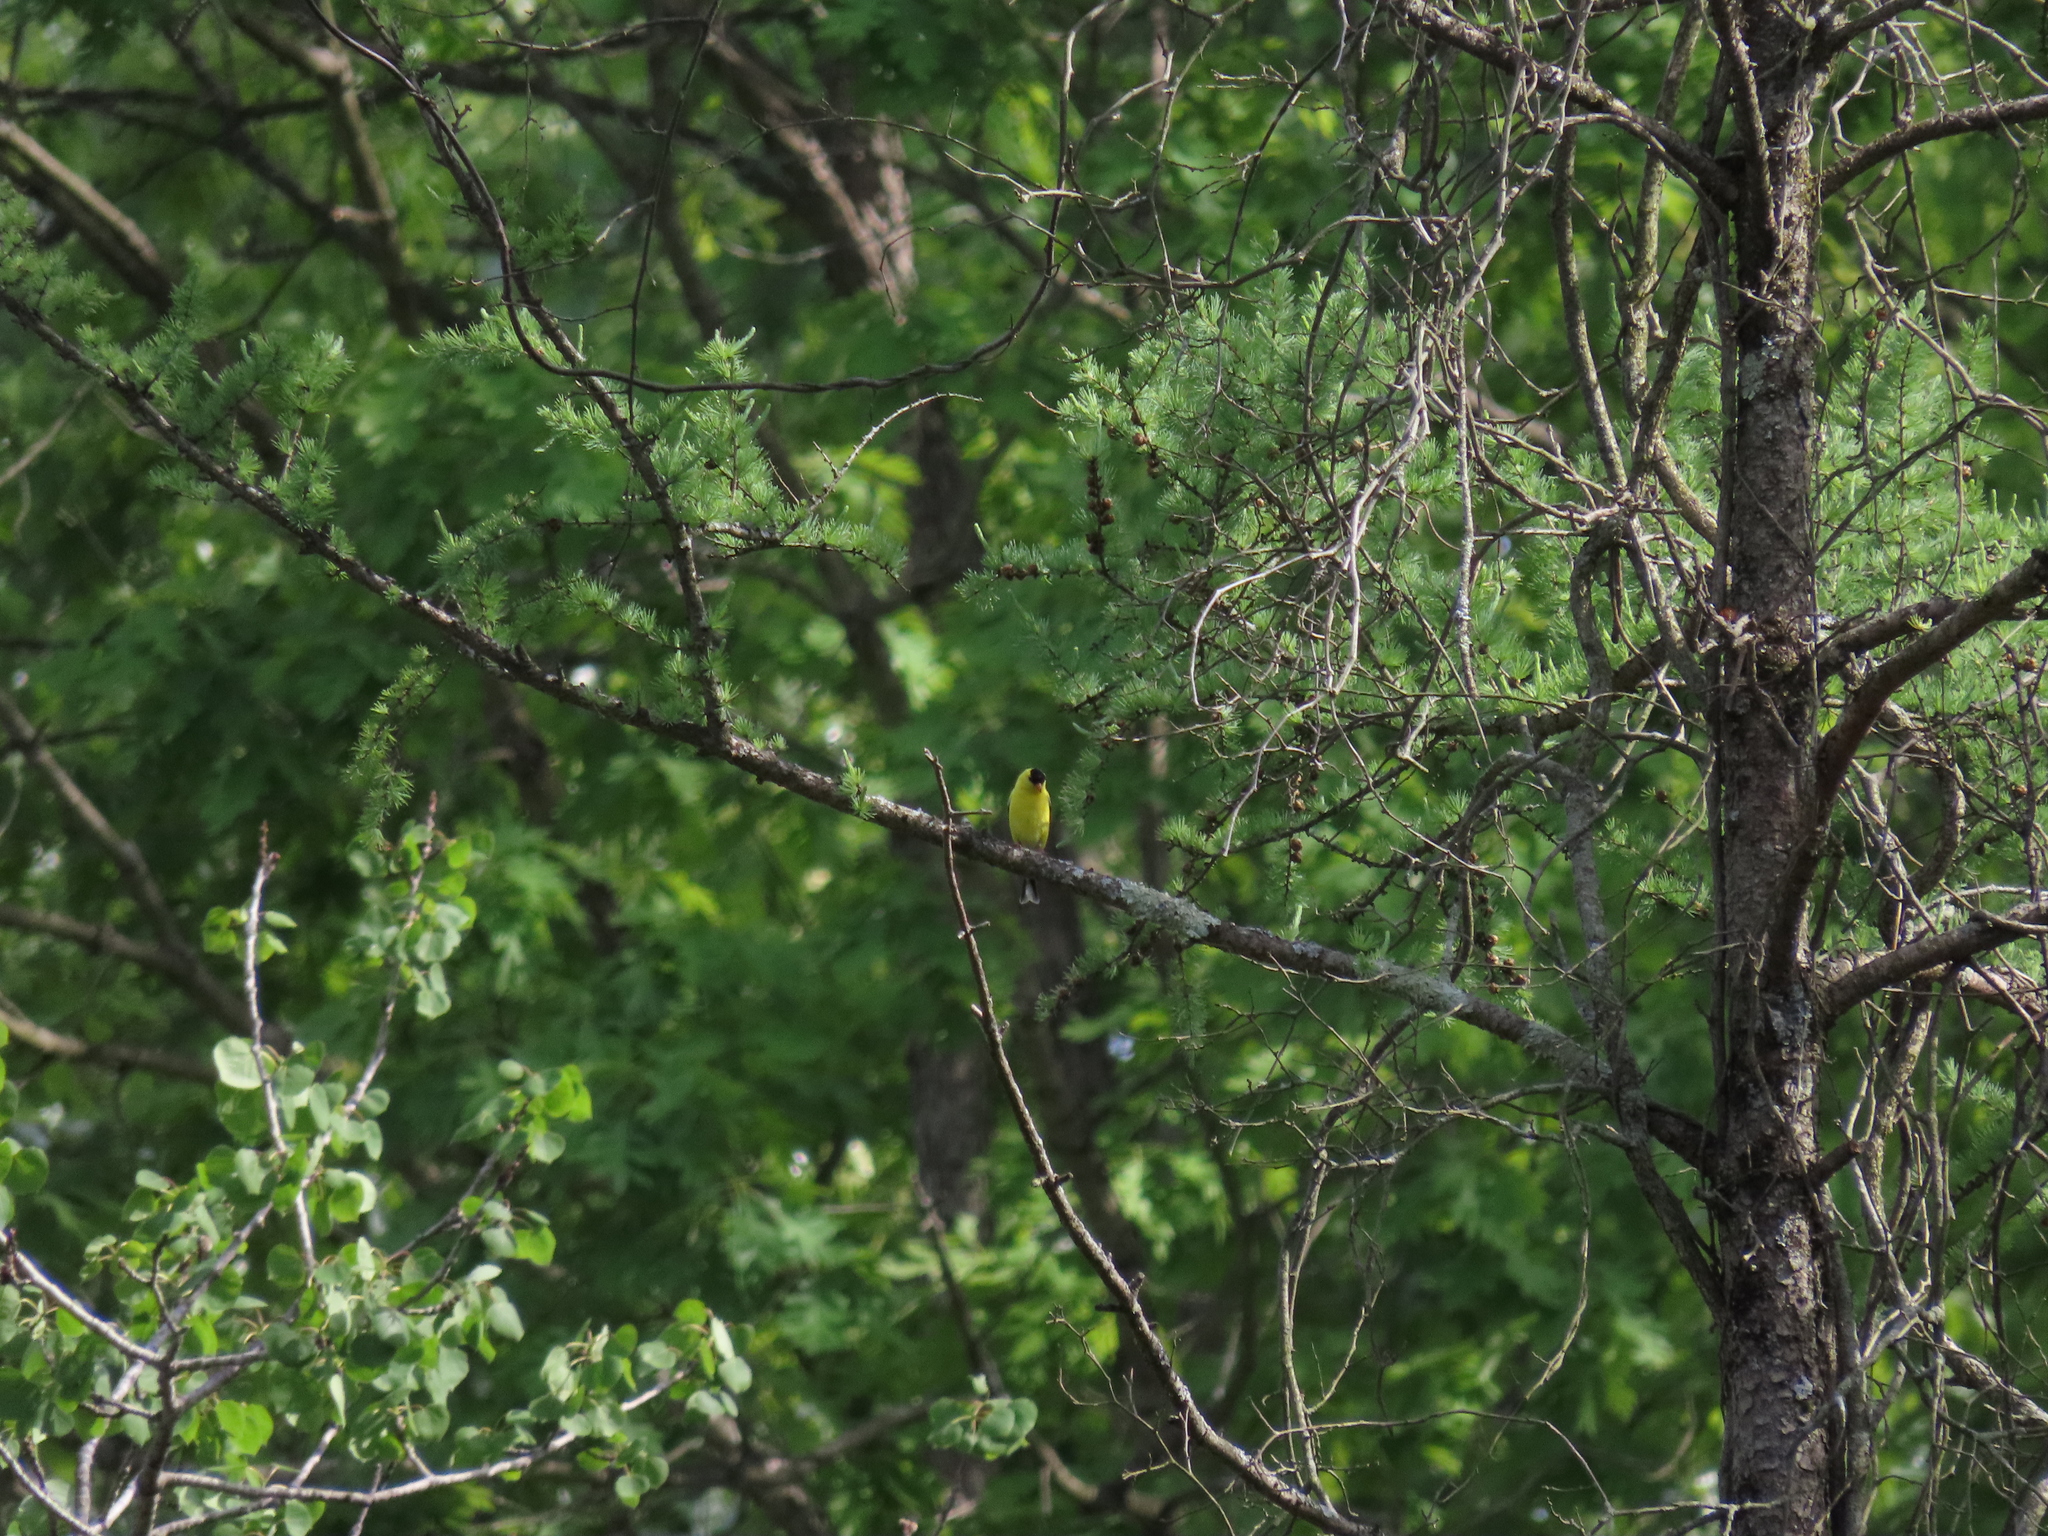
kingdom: Animalia
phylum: Chordata
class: Aves
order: Passeriformes
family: Fringillidae
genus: Spinus
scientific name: Spinus tristis
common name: American goldfinch
